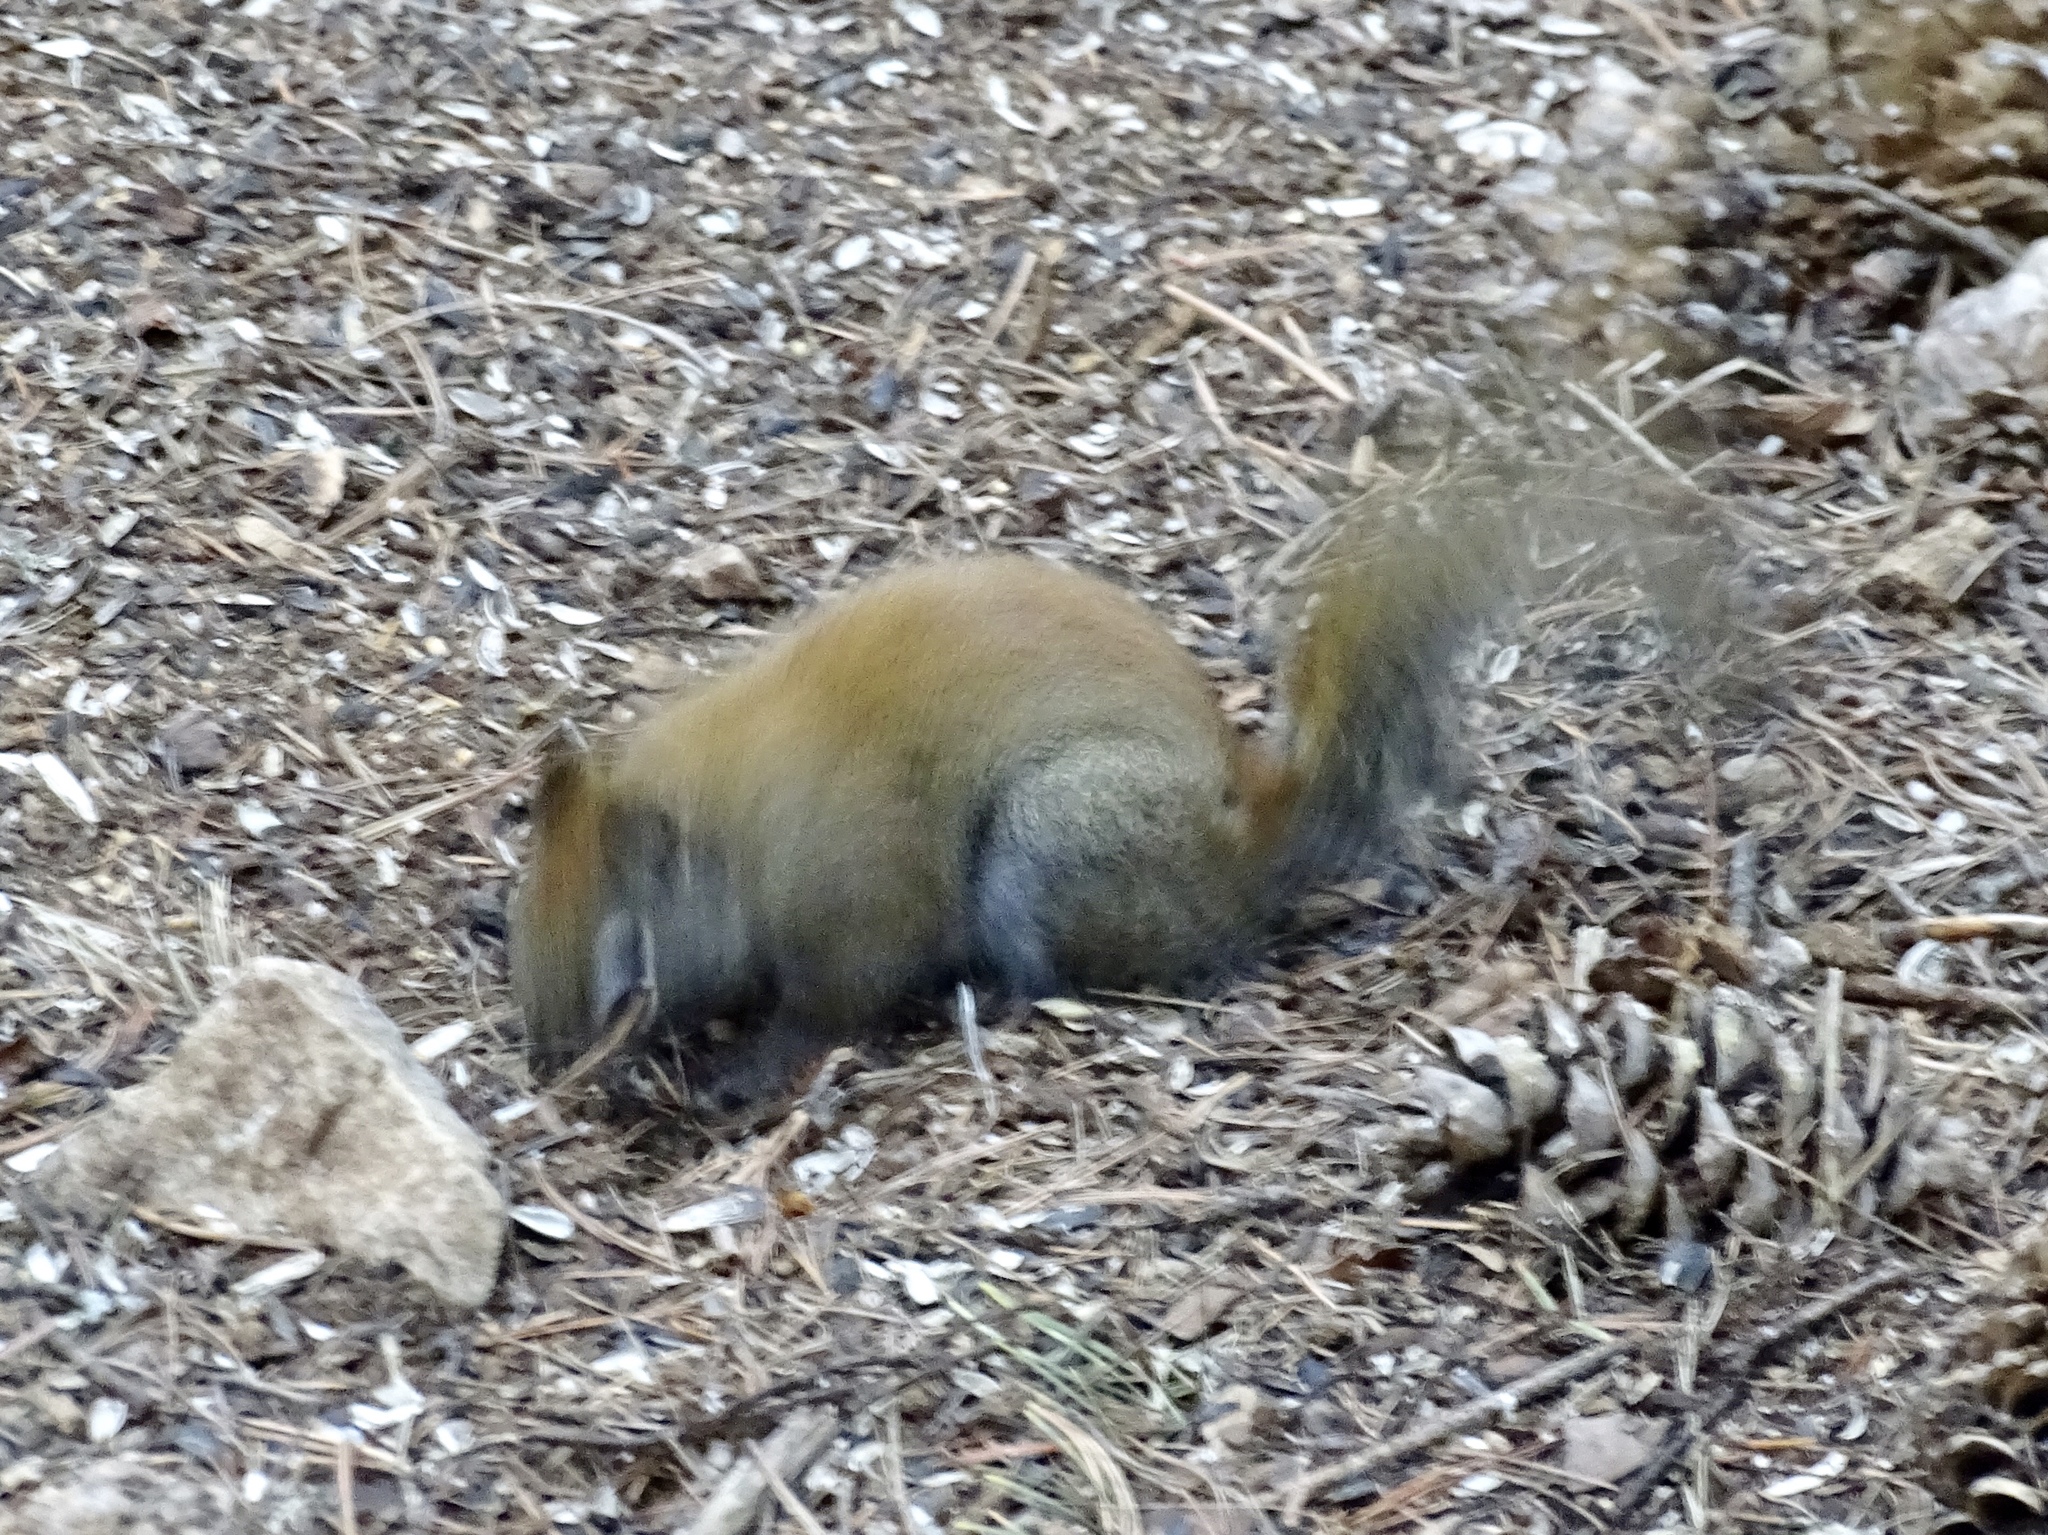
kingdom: Animalia
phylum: Chordata
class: Mammalia
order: Rodentia
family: Sciuridae
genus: Tamiasciurus
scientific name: Tamiasciurus hudsonicus
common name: Red squirrel
